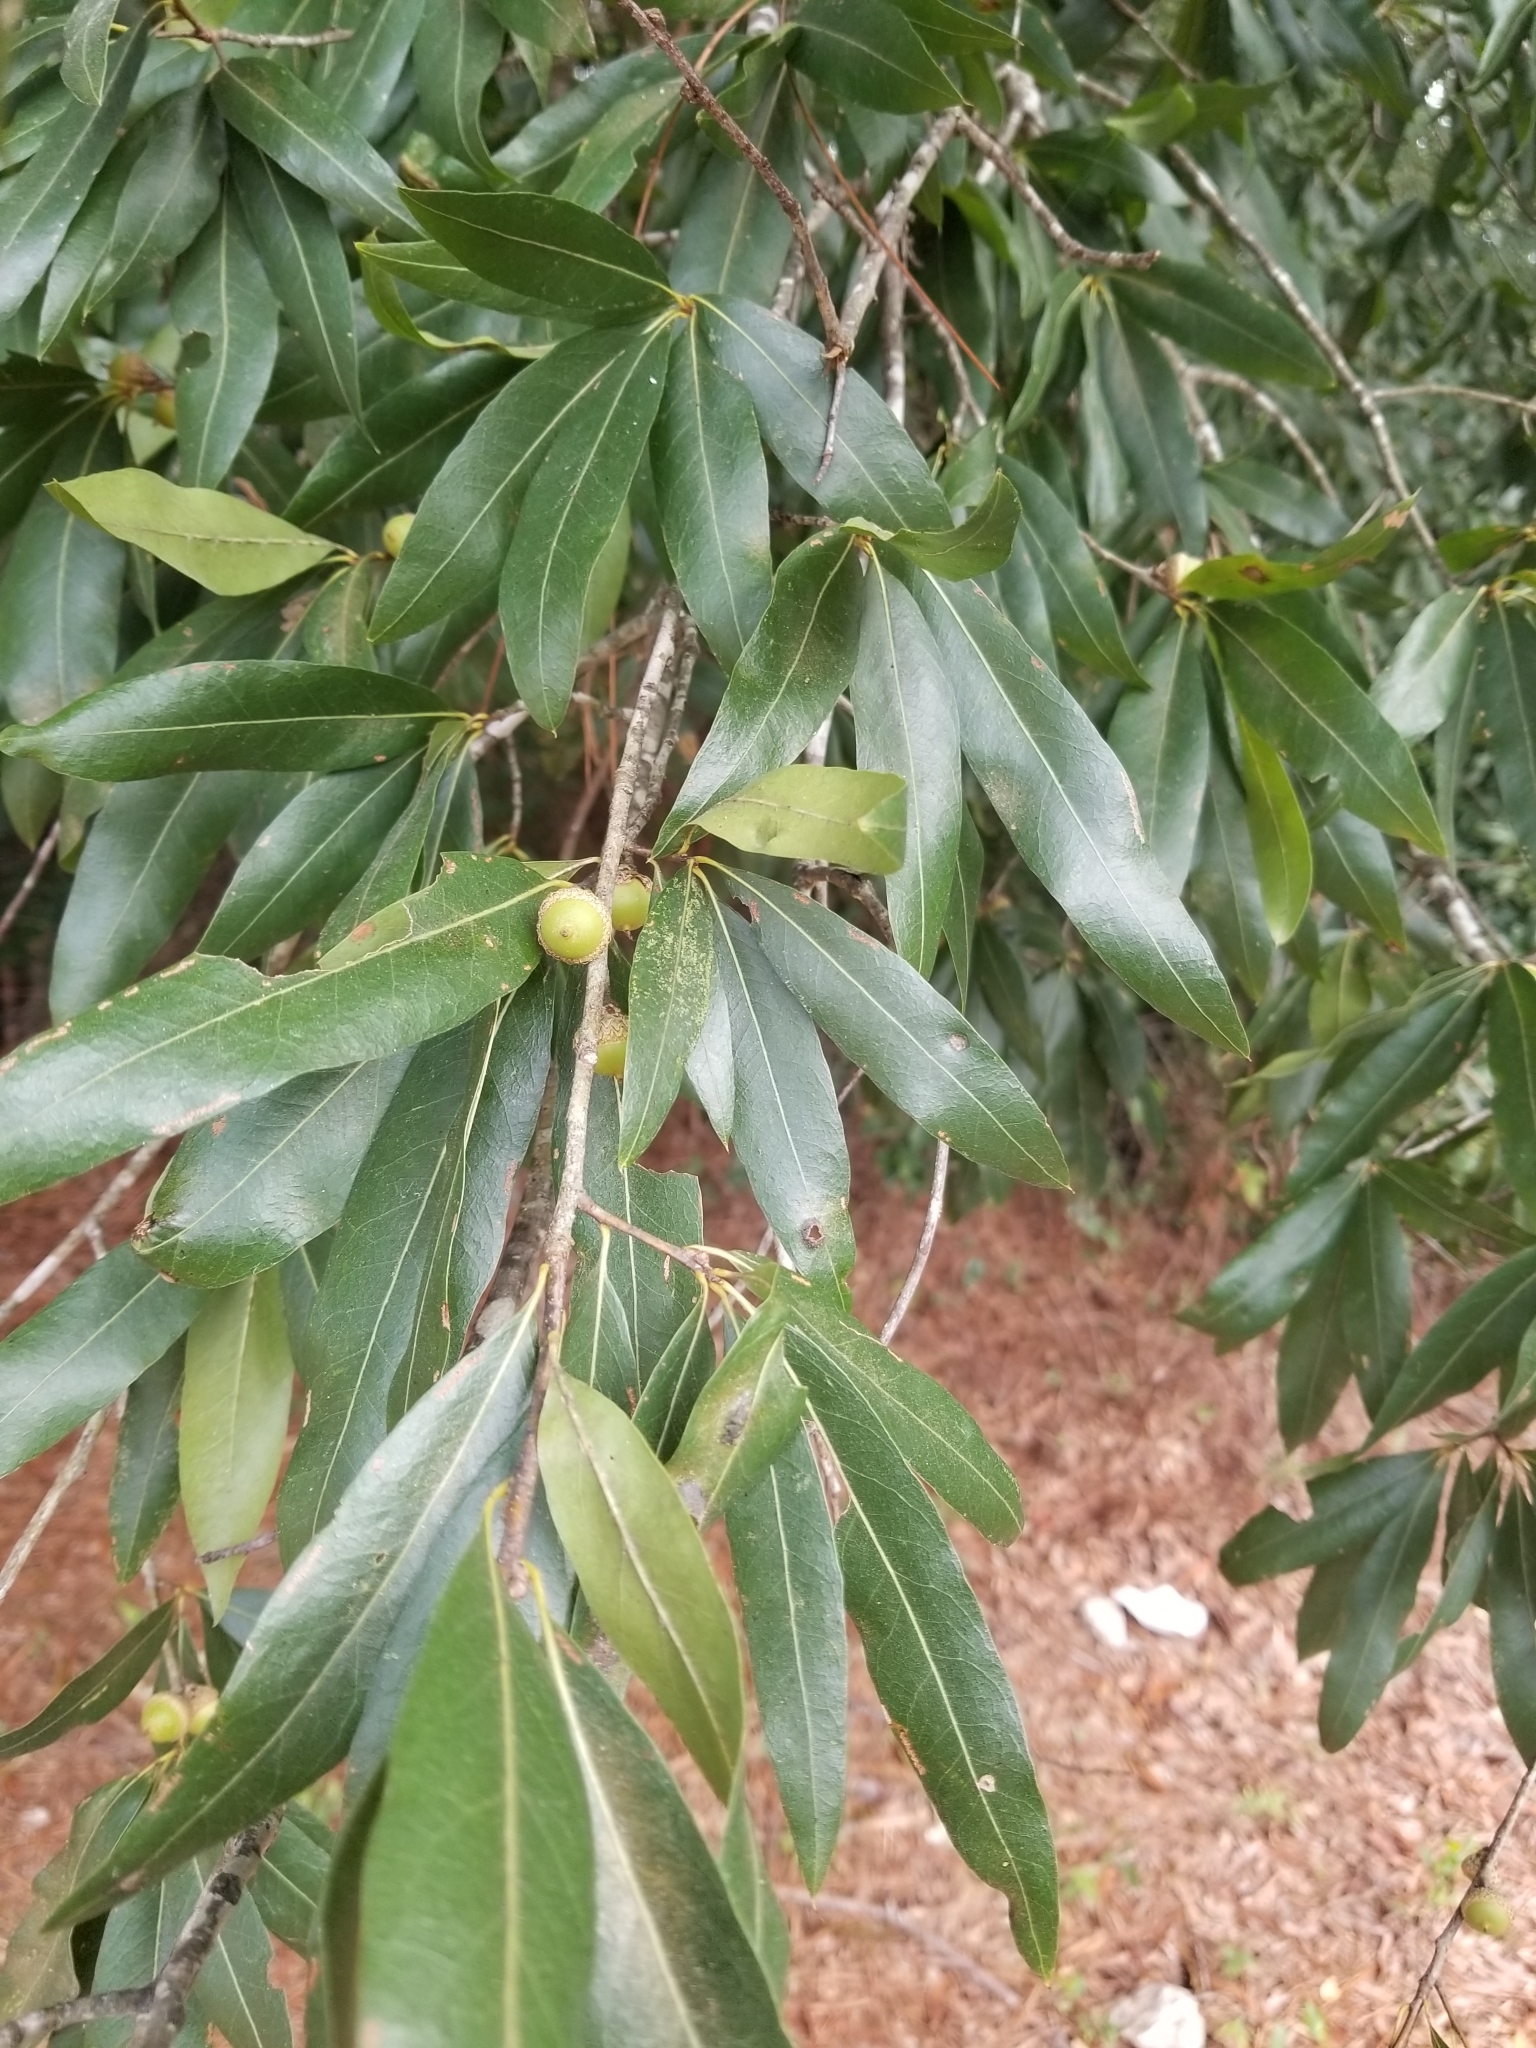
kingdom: Plantae
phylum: Tracheophyta
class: Magnoliopsida
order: Fagales
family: Fagaceae
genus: Quercus
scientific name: Quercus phellos
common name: Willow oak
